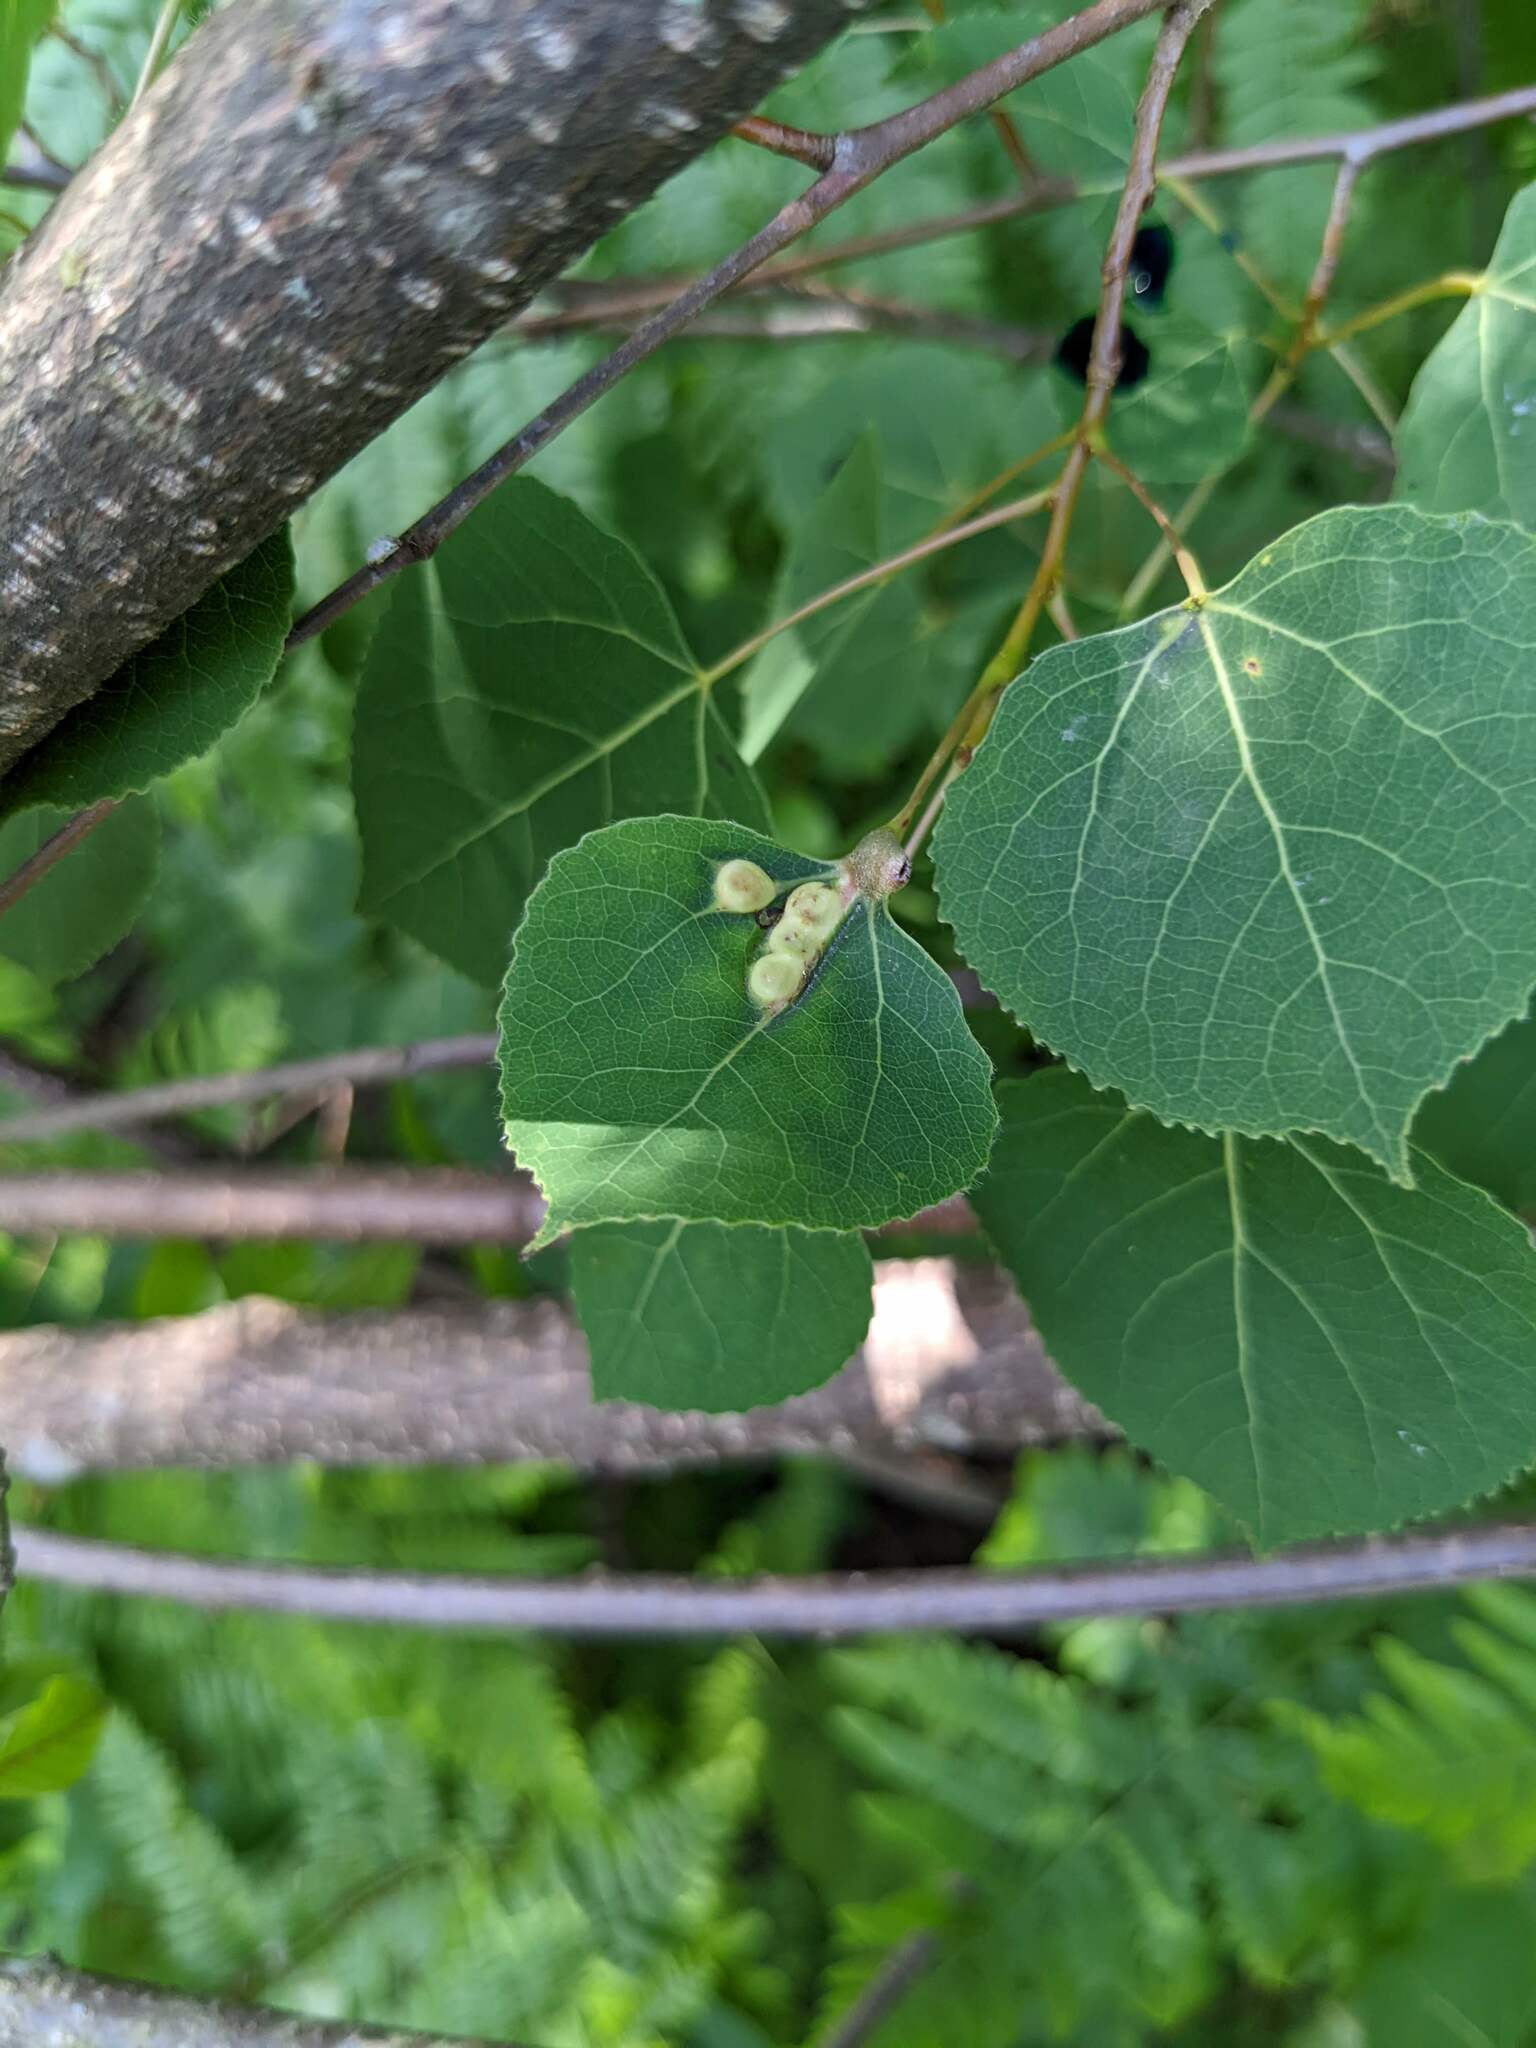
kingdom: Plantae
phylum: Tracheophyta
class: Magnoliopsida
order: Malpighiales
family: Salicaceae
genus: Populus
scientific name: Populus tremuloides
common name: Quaking aspen
